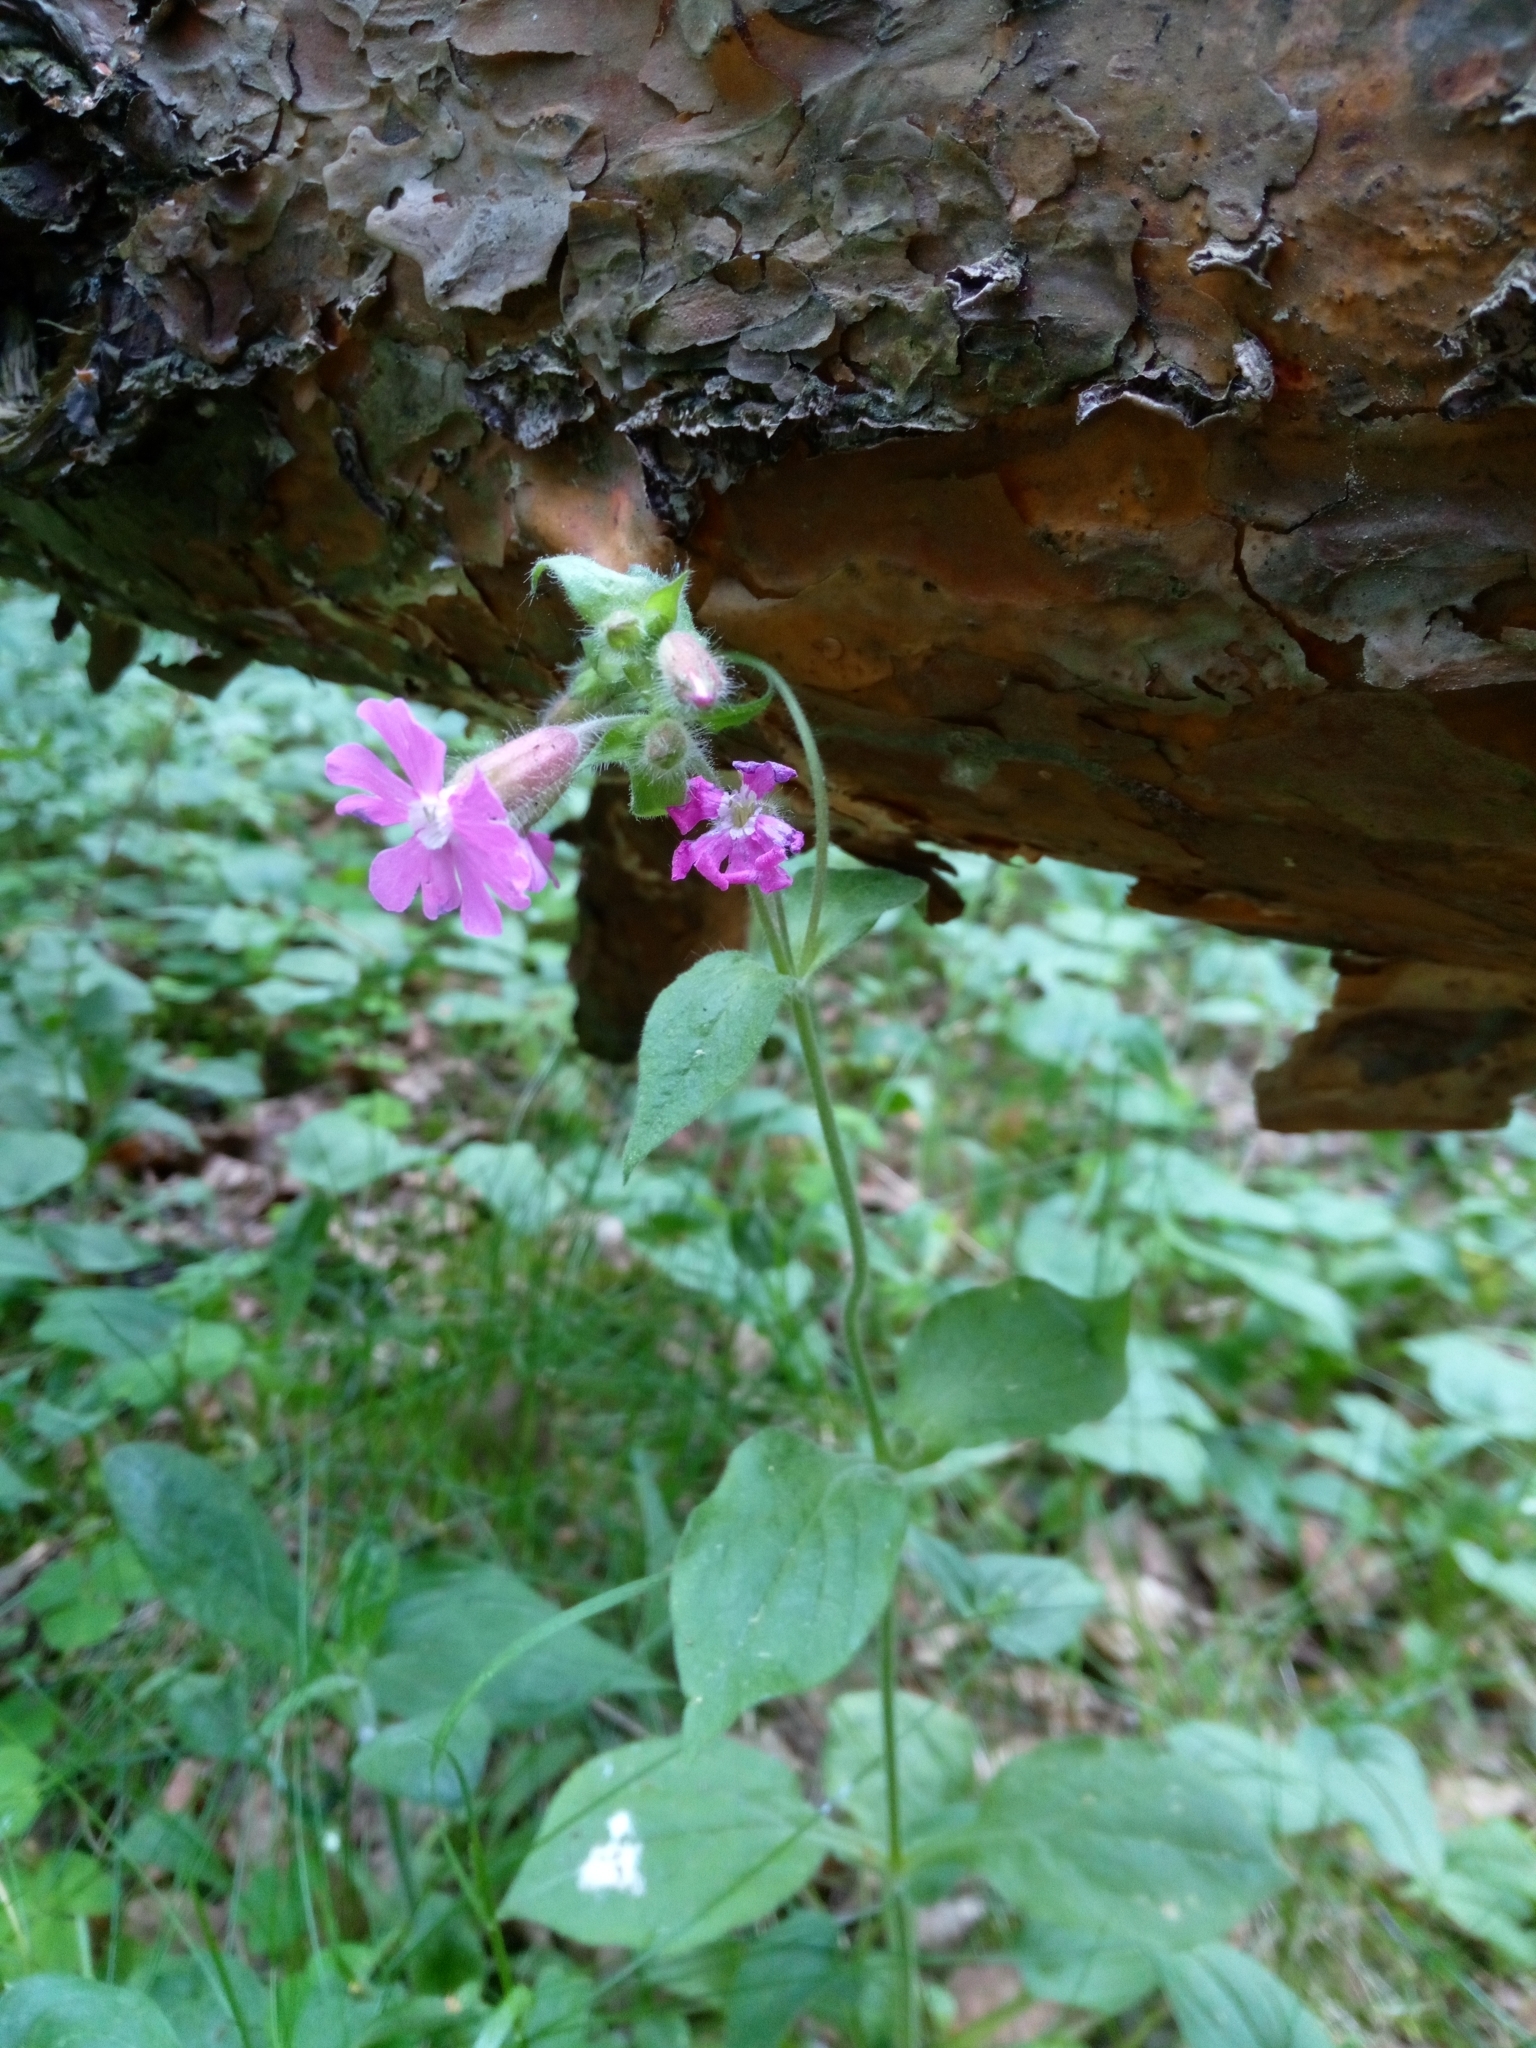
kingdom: Plantae
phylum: Tracheophyta
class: Magnoliopsida
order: Caryophyllales
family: Caryophyllaceae
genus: Silene
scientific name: Silene dioica
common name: Red campion
